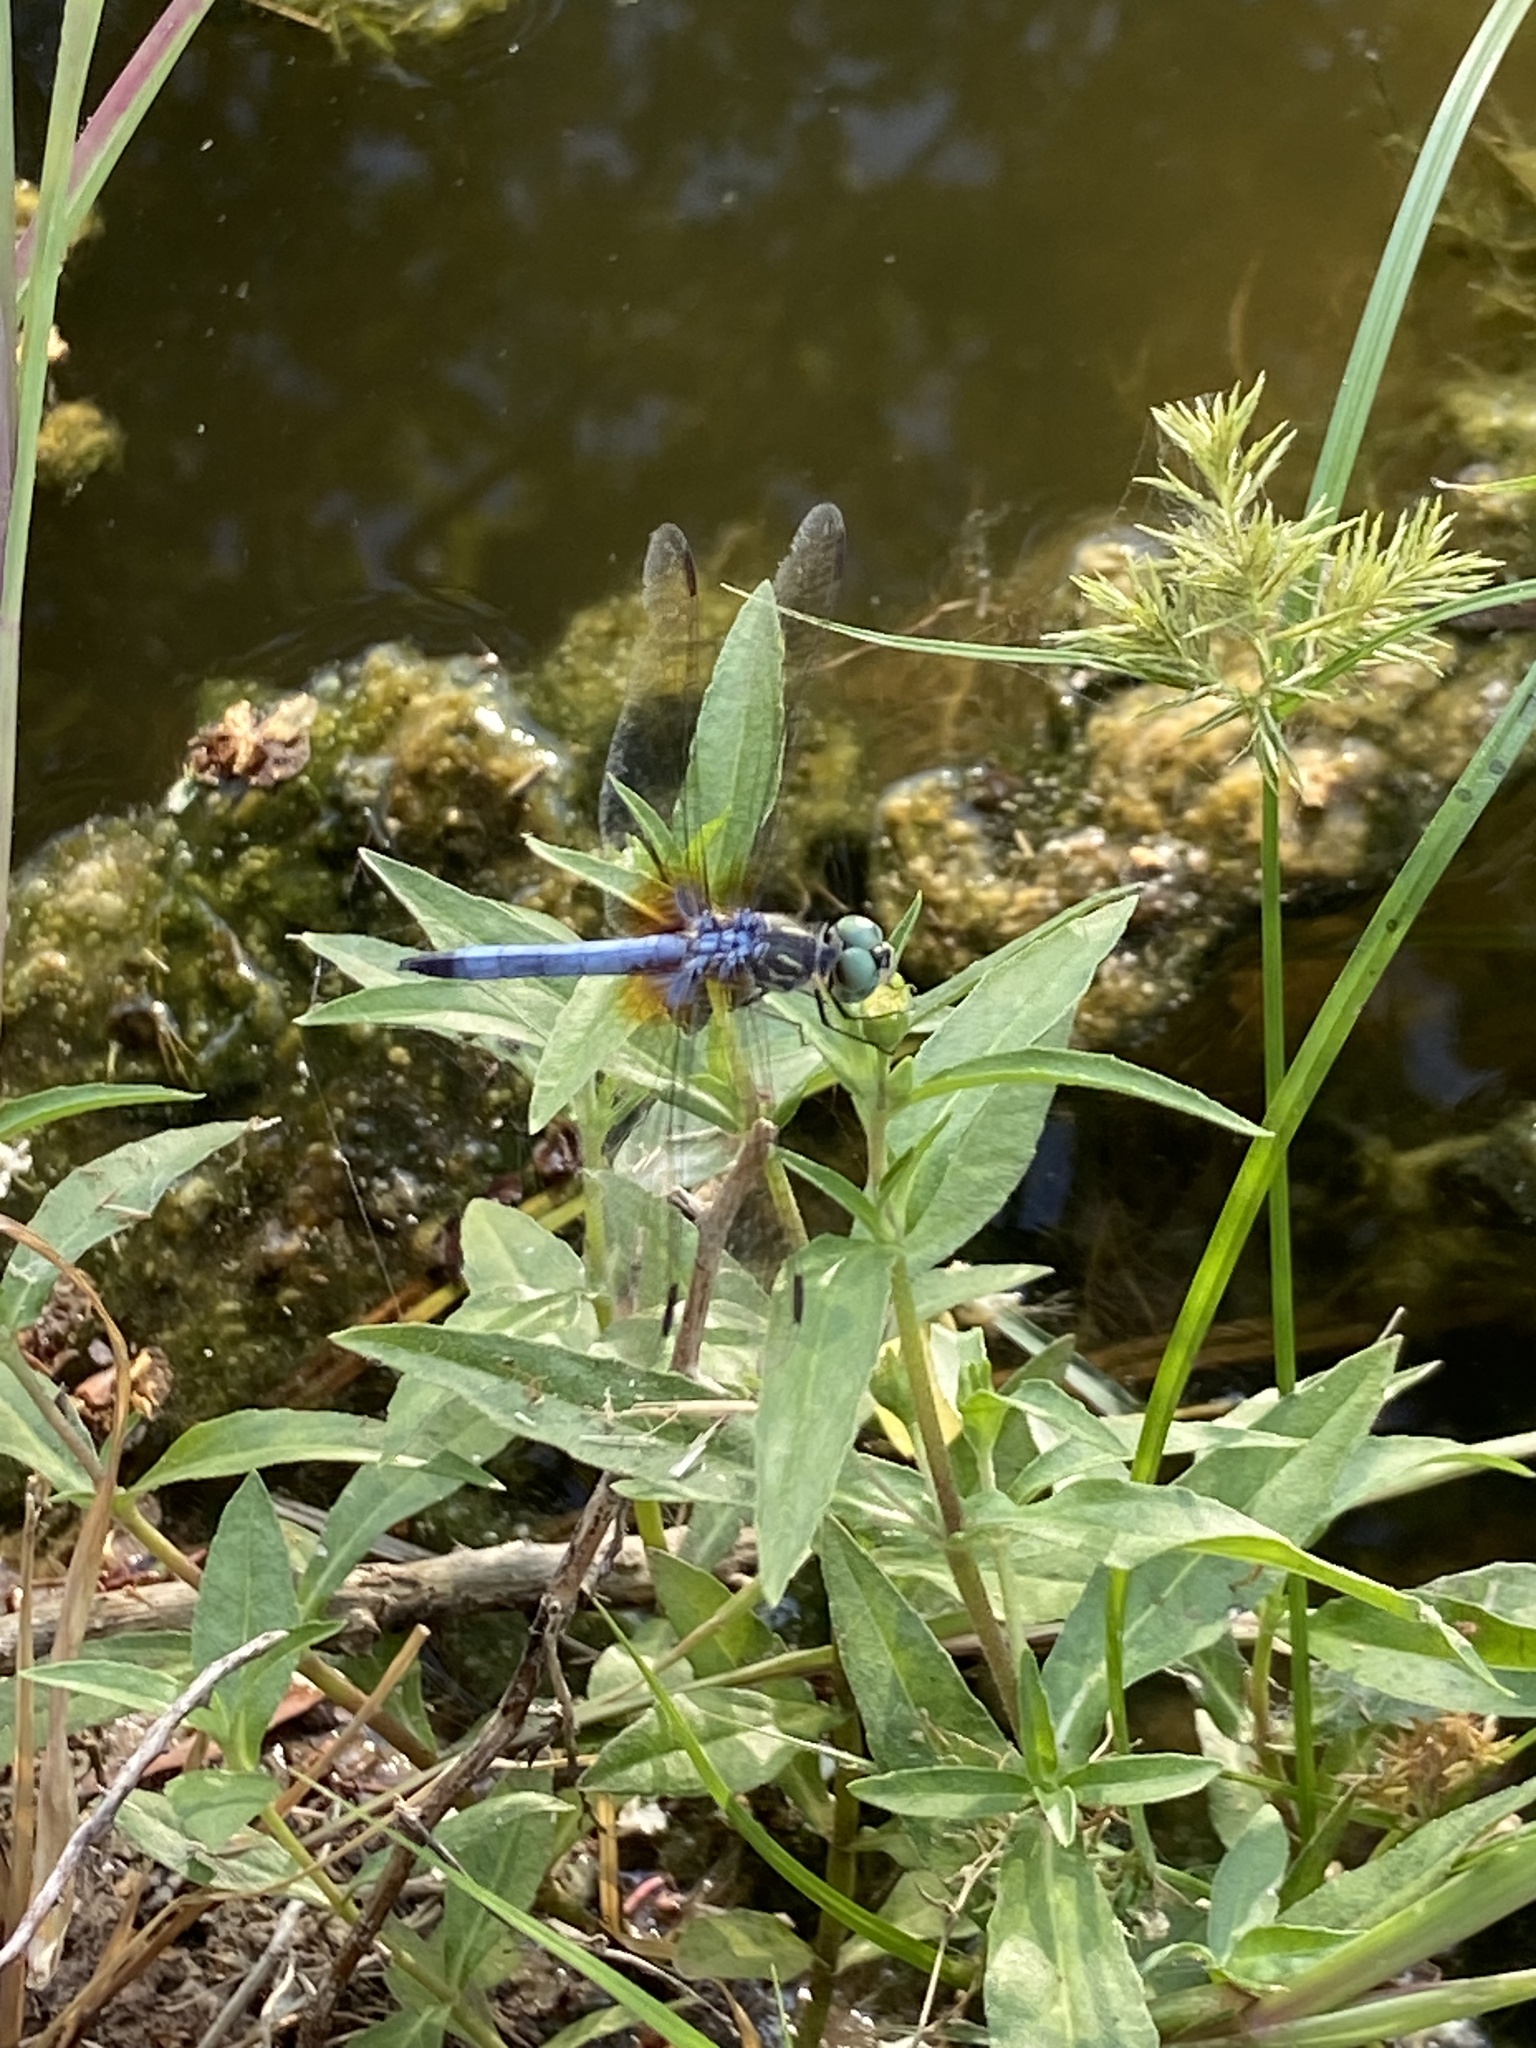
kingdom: Animalia
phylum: Arthropoda
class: Insecta
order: Odonata
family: Libellulidae
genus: Pachydiplax
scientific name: Pachydiplax longipennis
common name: Blue dasher
